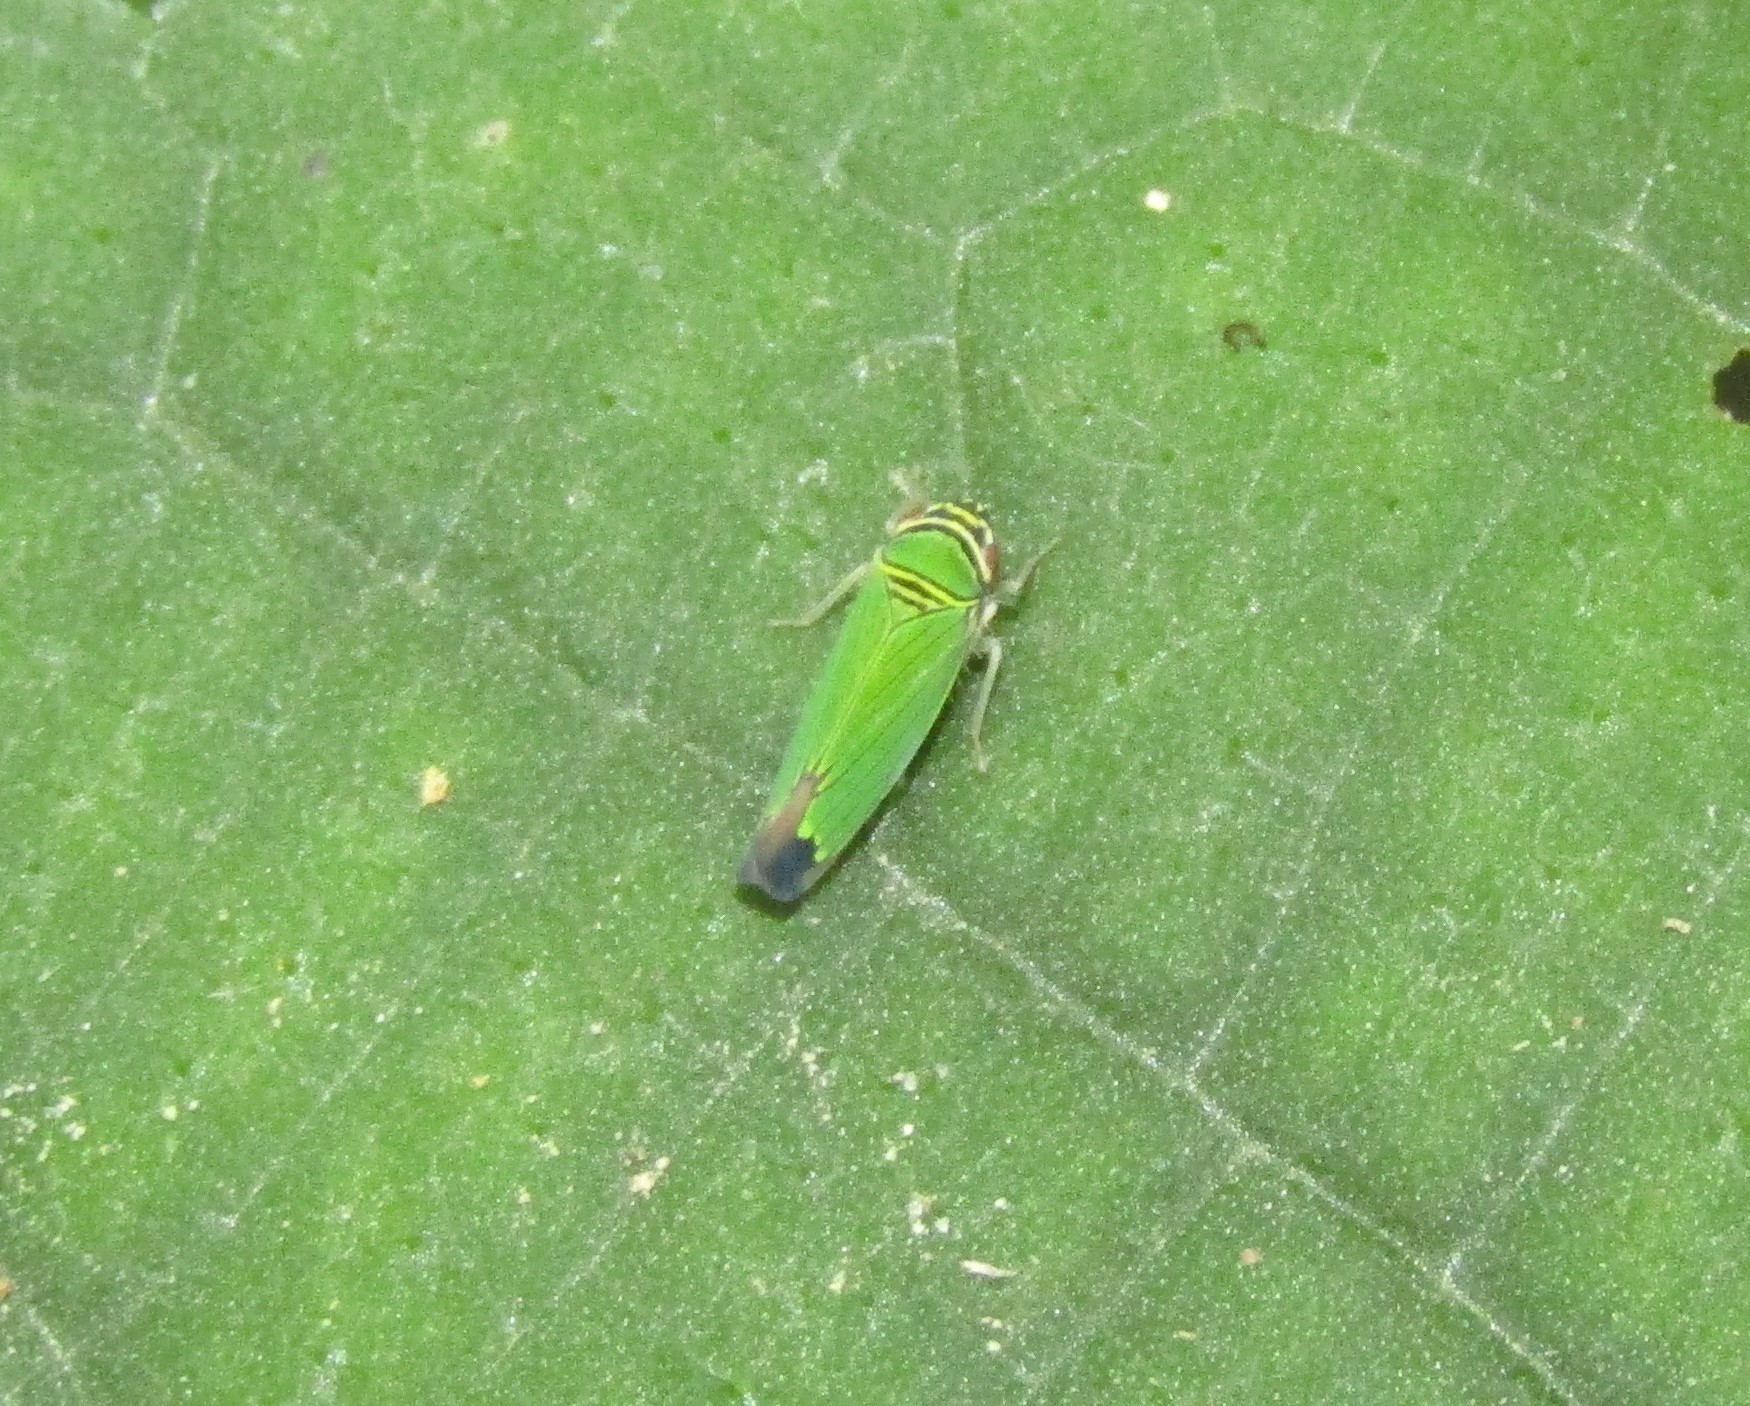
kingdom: Animalia
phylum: Arthropoda
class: Insecta
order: Hemiptera
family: Cicadellidae
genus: Tylozygus
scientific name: Tylozygus geometricus
